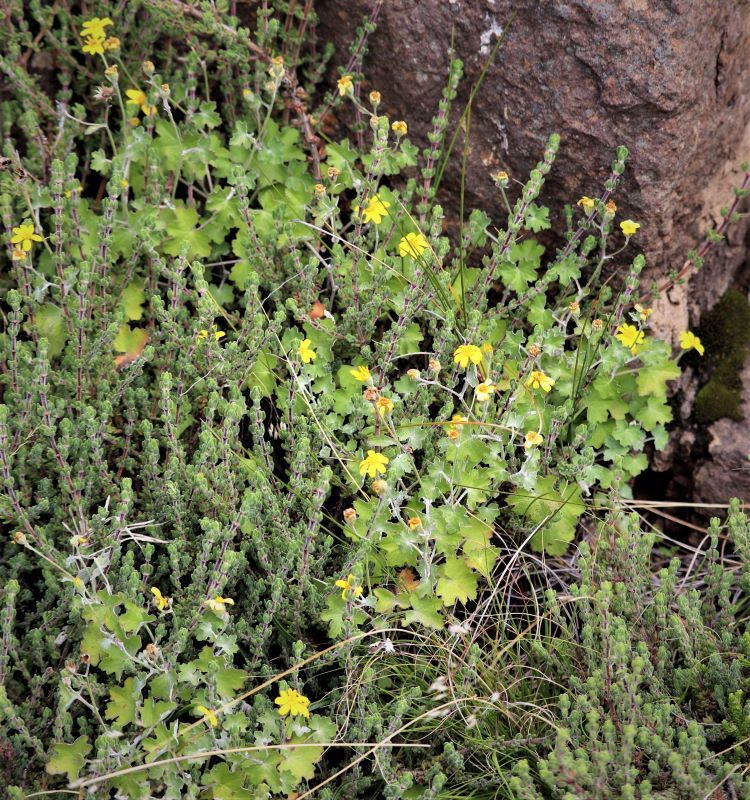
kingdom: Plantae
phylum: Tracheophyta
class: Magnoliopsida
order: Asterales
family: Asteraceae
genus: Cineraria
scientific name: Cineraria lobata
